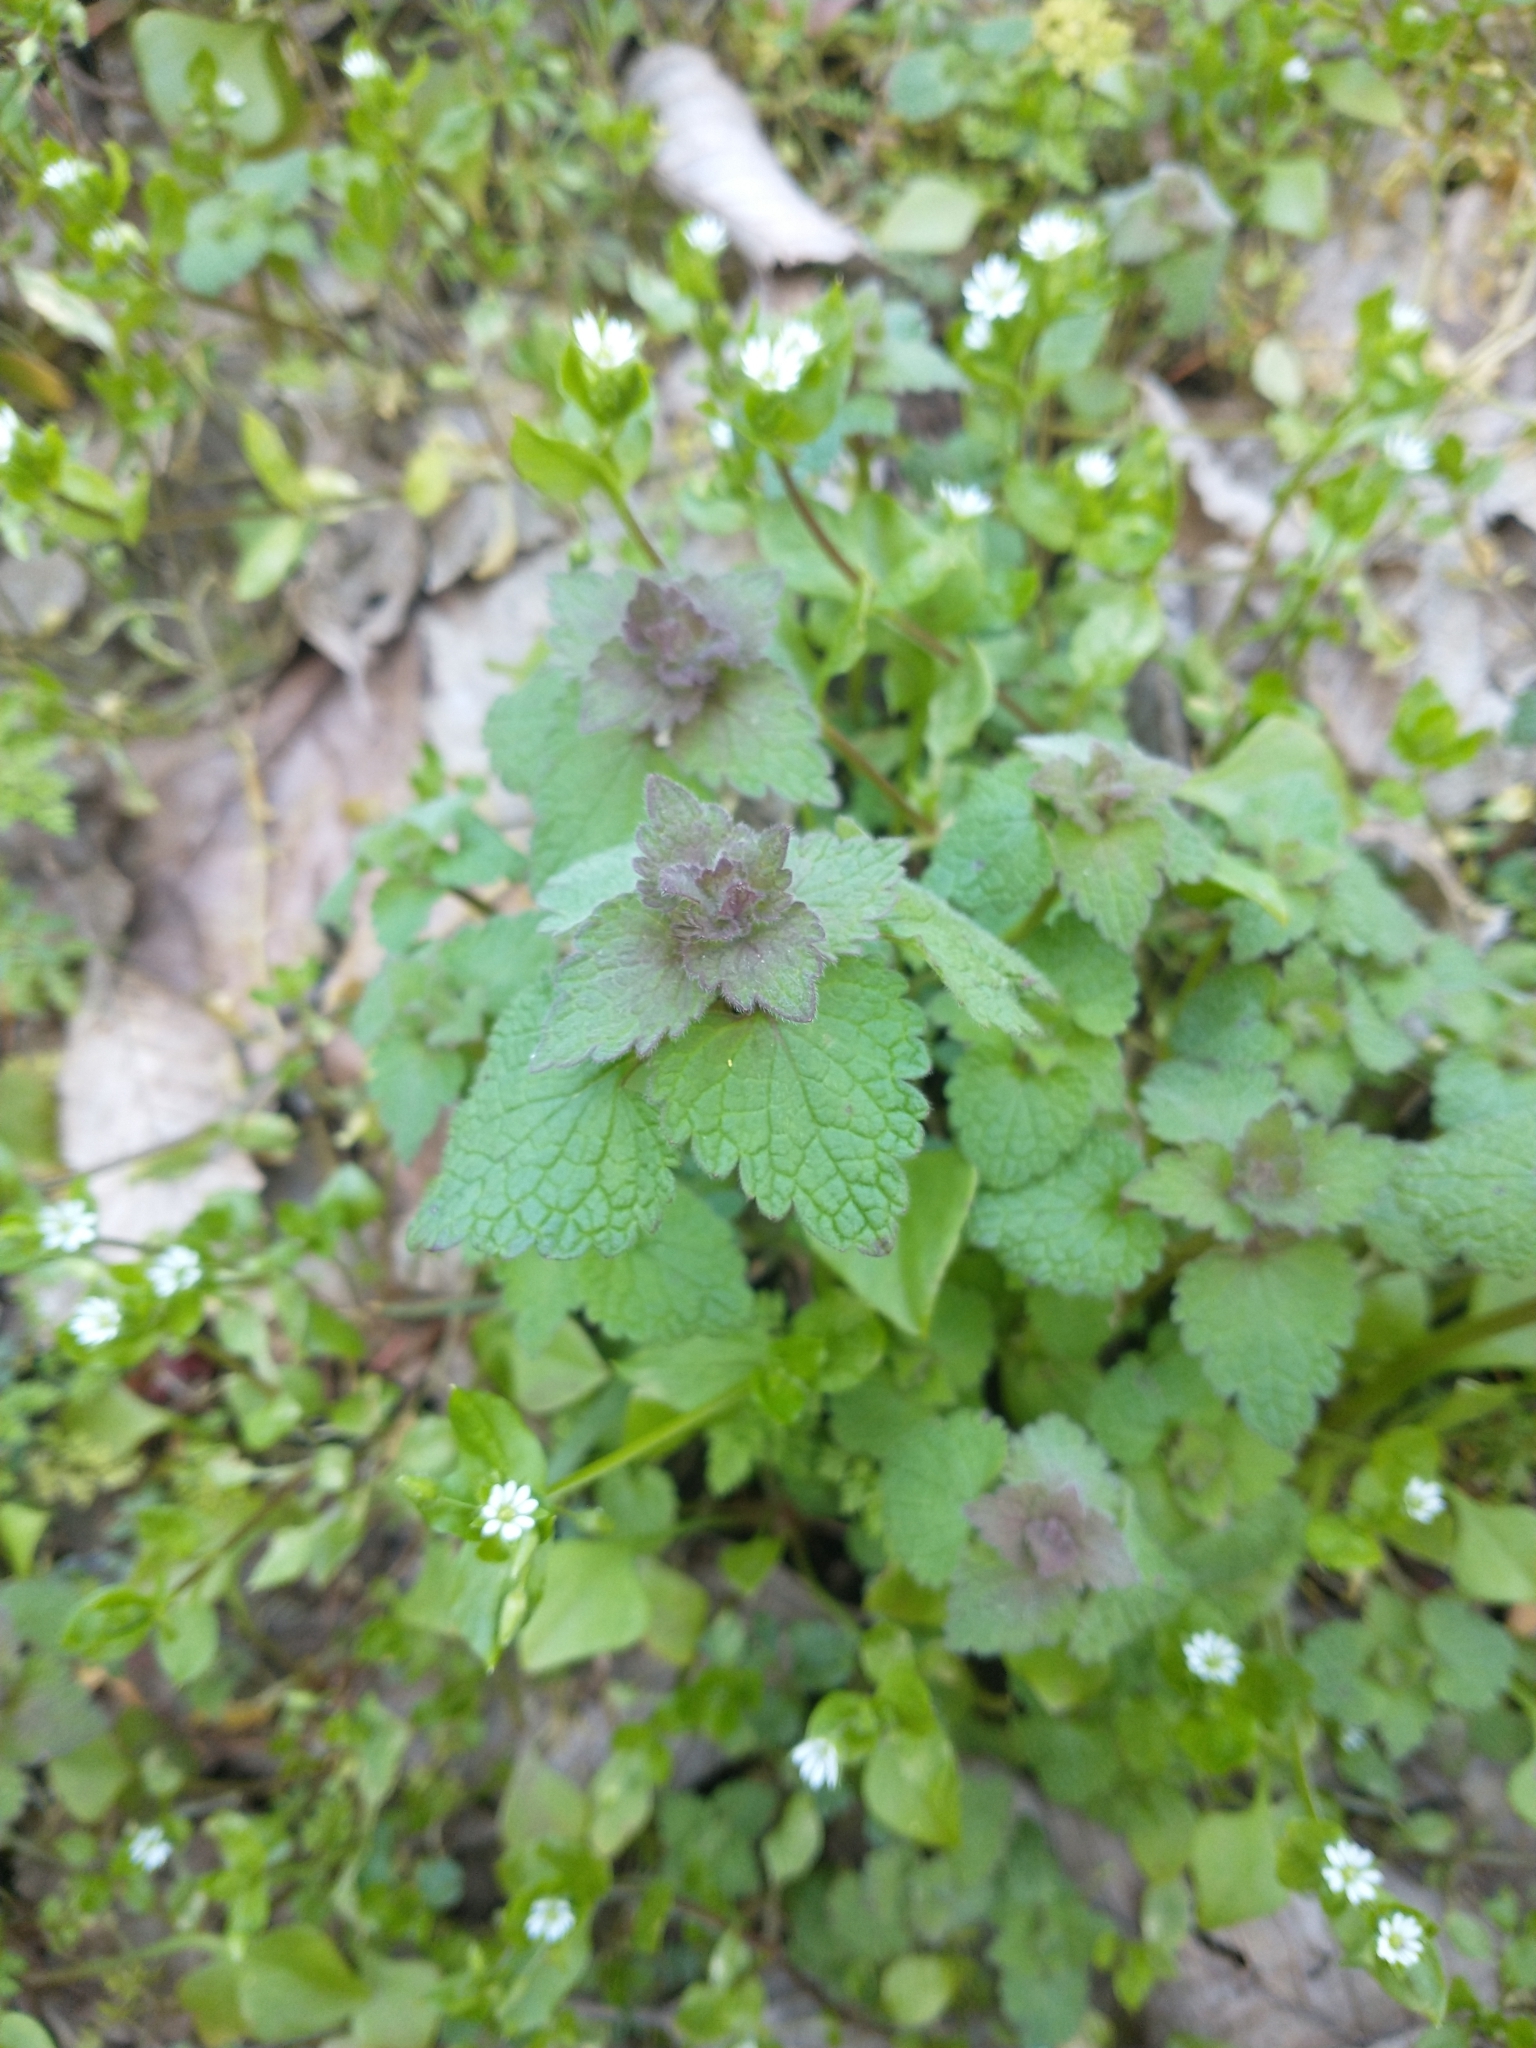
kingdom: Plantae
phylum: Tracheophyta
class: Magnoliopsida
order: Lamiales
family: Lamiaceae
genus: Lamium
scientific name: Lamium purpureum
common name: Red dead-nettle
